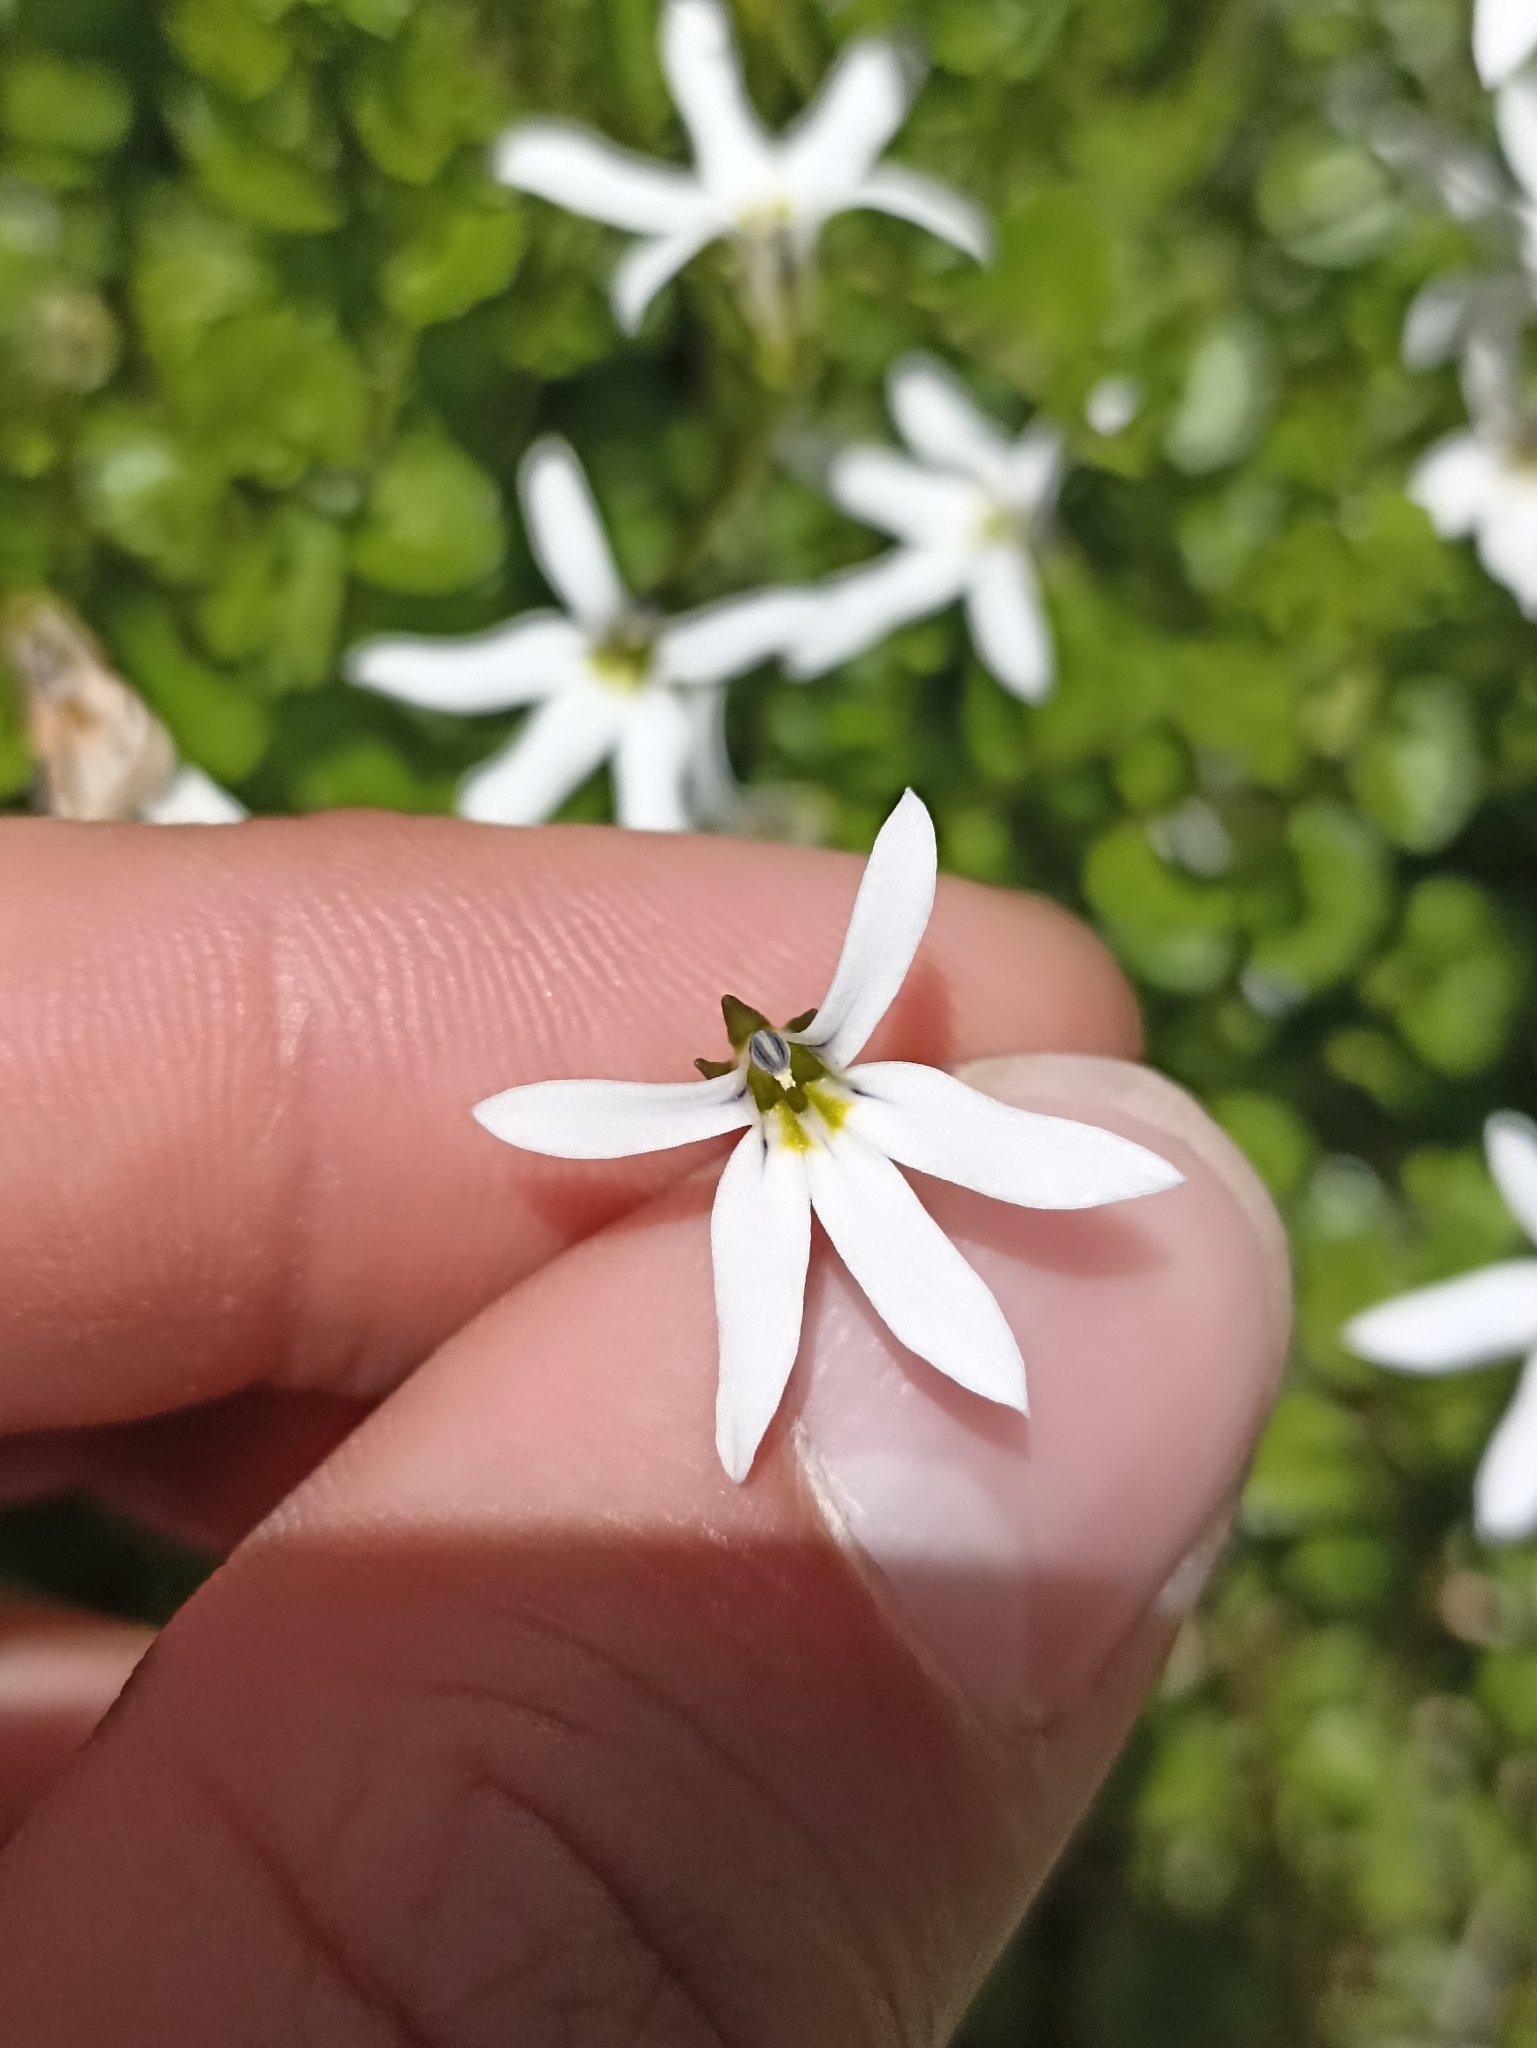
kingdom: Plantae
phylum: Tracheophyta
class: Magnoliopsida
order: Asterales
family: Campanulaceae
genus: Lobelia
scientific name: Lobelia angulata
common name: Lawn lobelia
